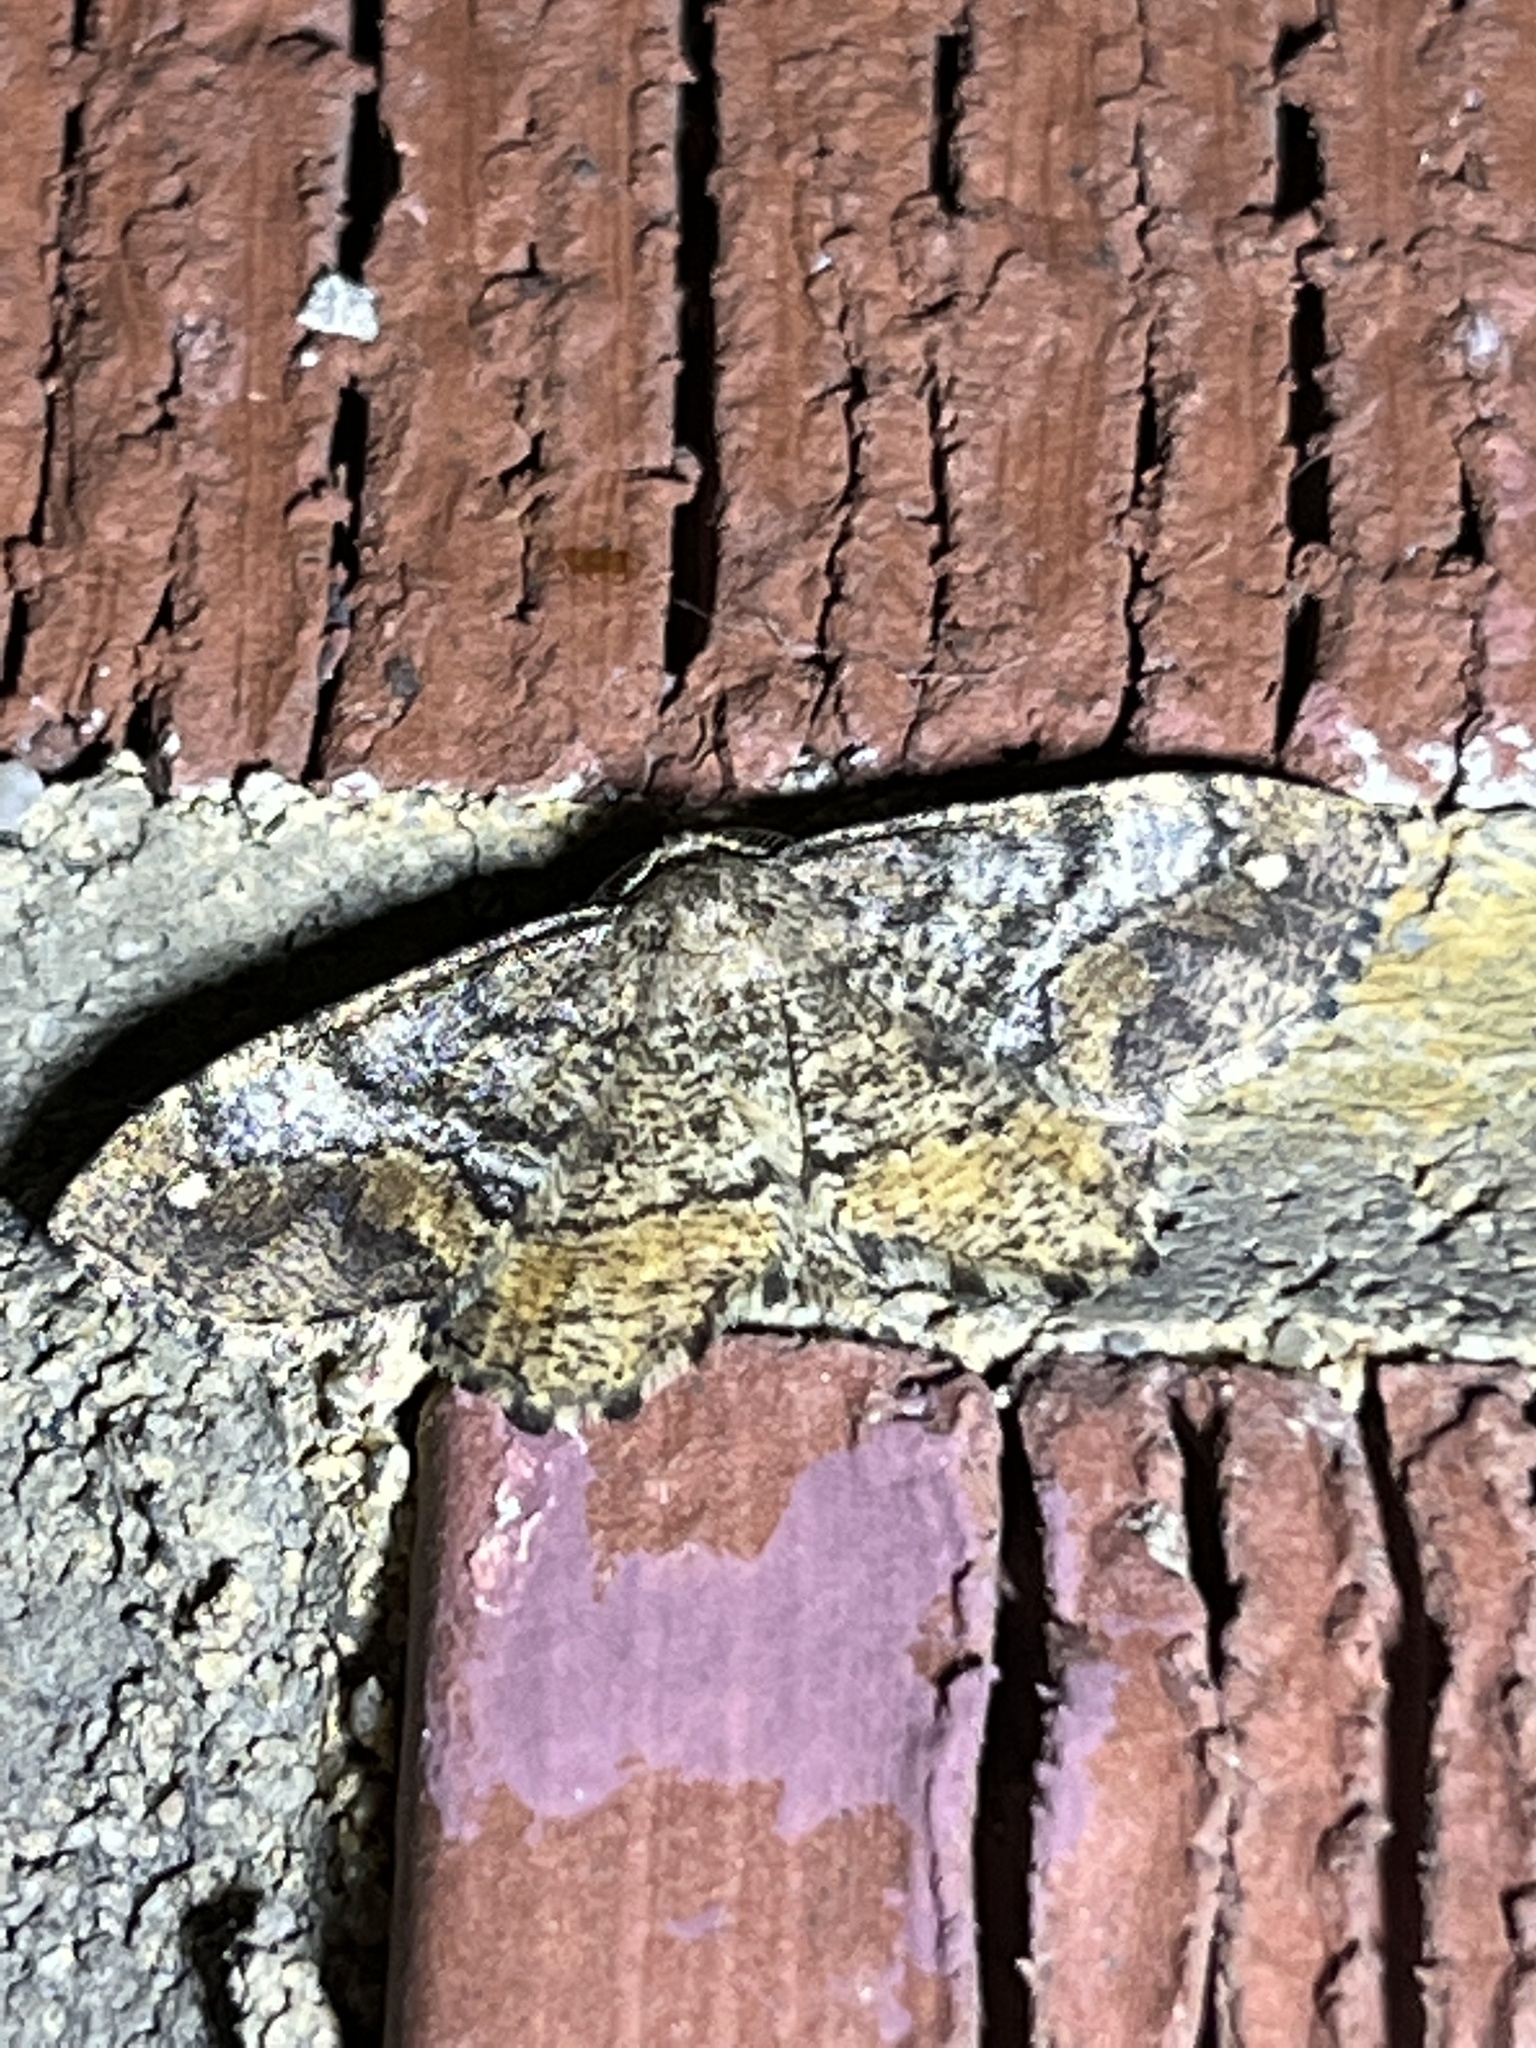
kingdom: Animalia
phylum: Arthropoda
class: Insecta
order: Lepidoptera
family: Geometridae
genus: Hypagyrtis
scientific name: Hypagyrtis unipunctata
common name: One-spotted variant
